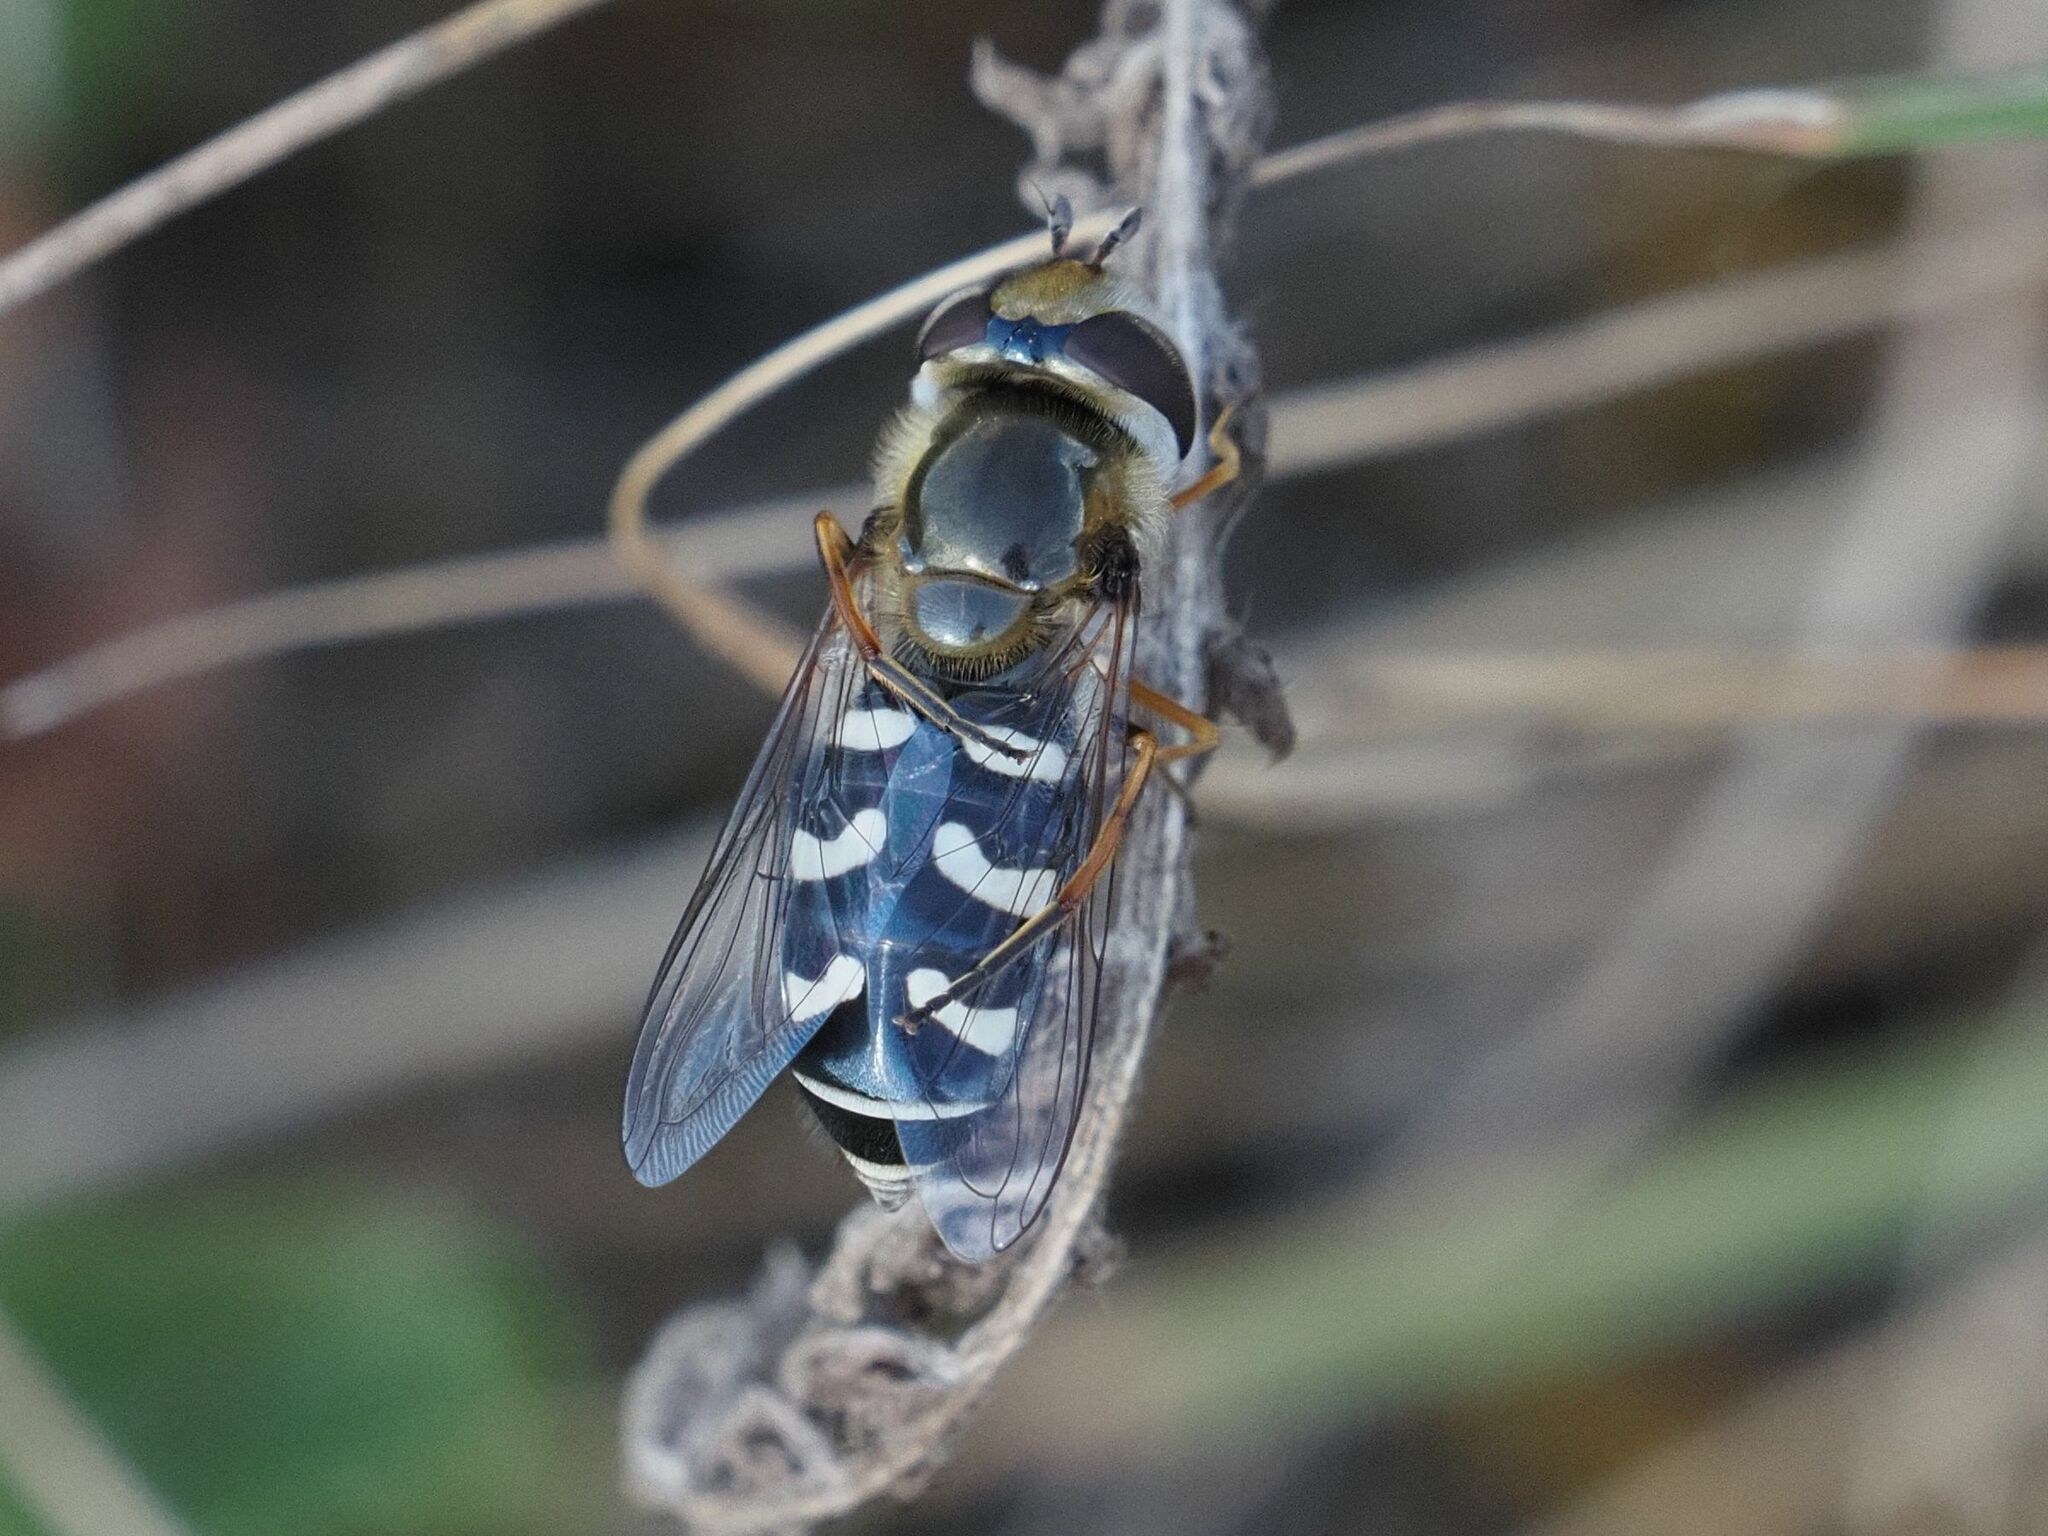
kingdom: Animalia
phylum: Arthropoda
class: Insecta
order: Diptera
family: Syrphidae
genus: Scaeva
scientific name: Scaeva pyrastri
